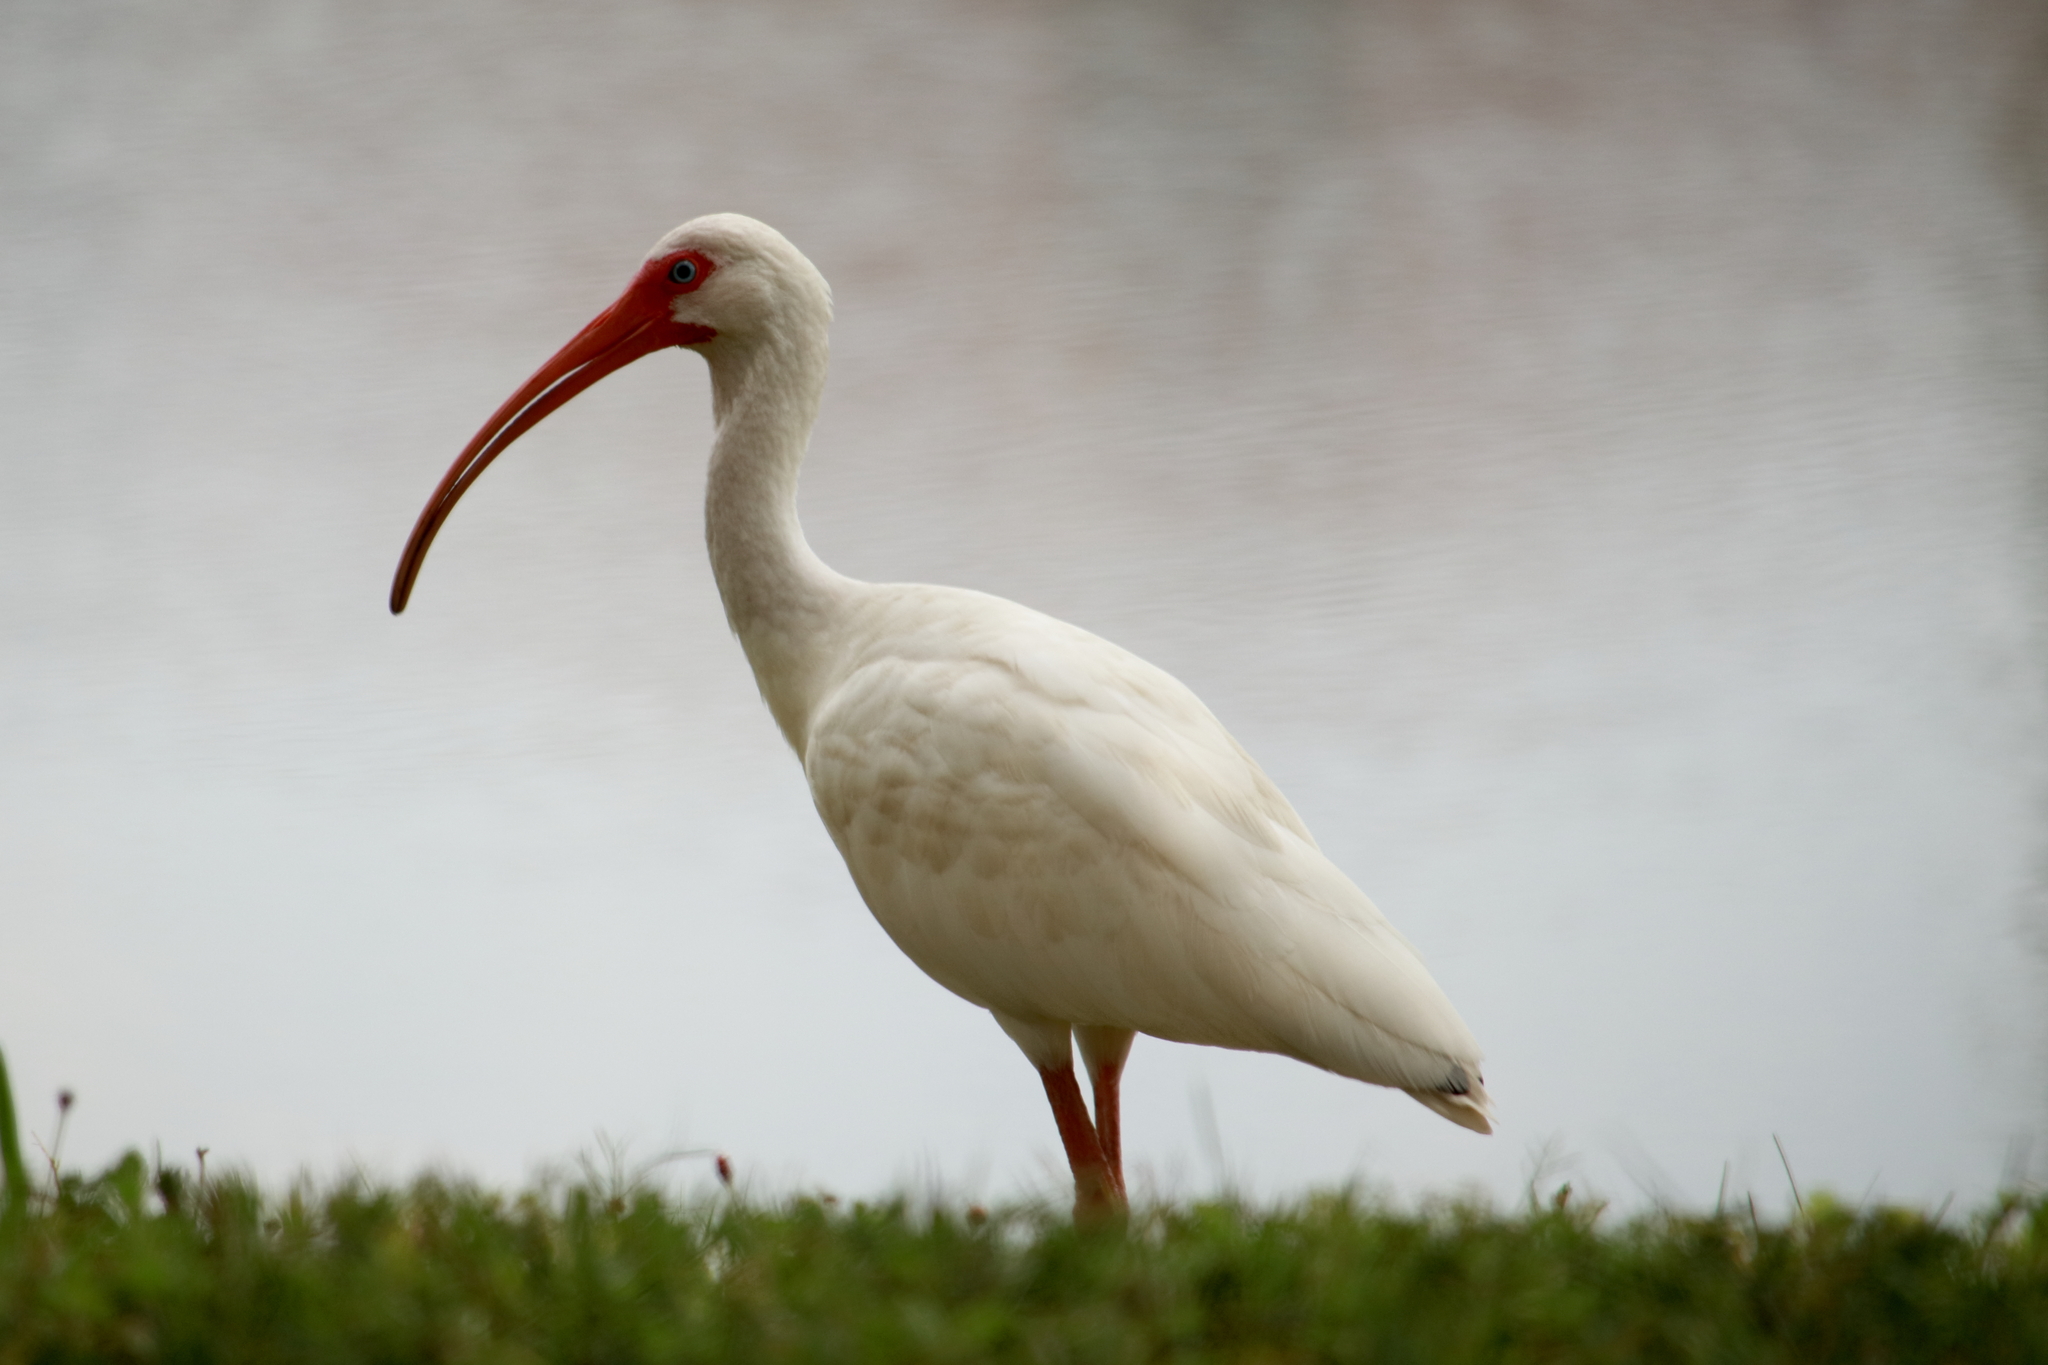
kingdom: Animalia
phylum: Chordata
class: Aves
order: Pelecaniformes
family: Threskiornithidae
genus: Eudocimus
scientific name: Eudocimus albus
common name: White ibis
